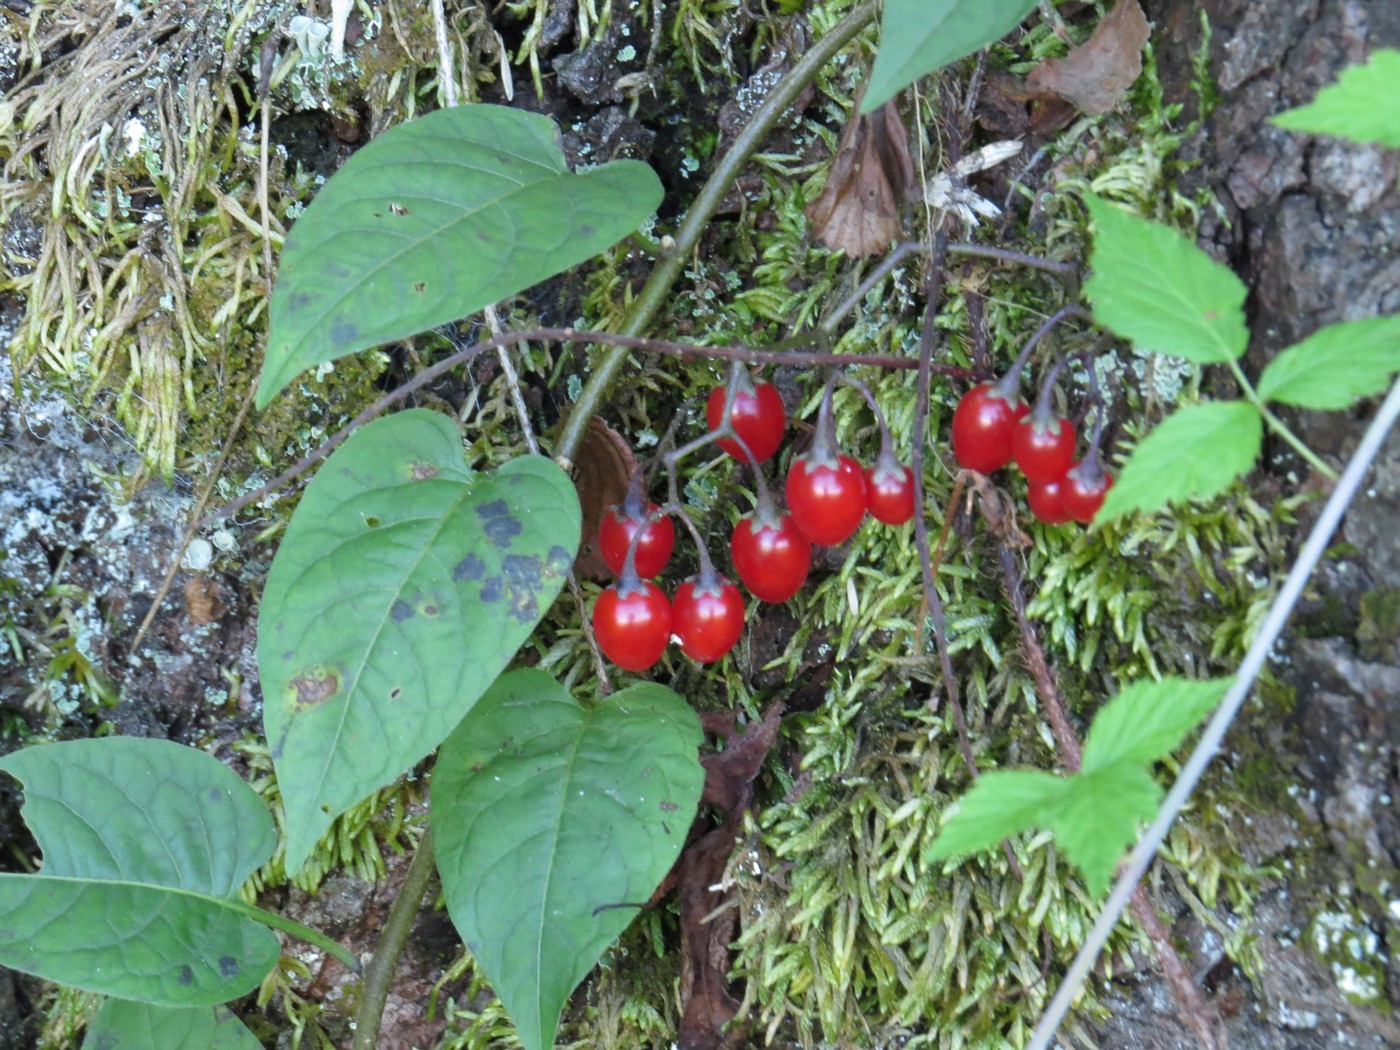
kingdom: Plantae
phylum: Tracheophyta
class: Magnoliopsida
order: Solanales
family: Solanaceae
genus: Solanum
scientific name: Solanum dulcamara
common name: Climbing nightshade
